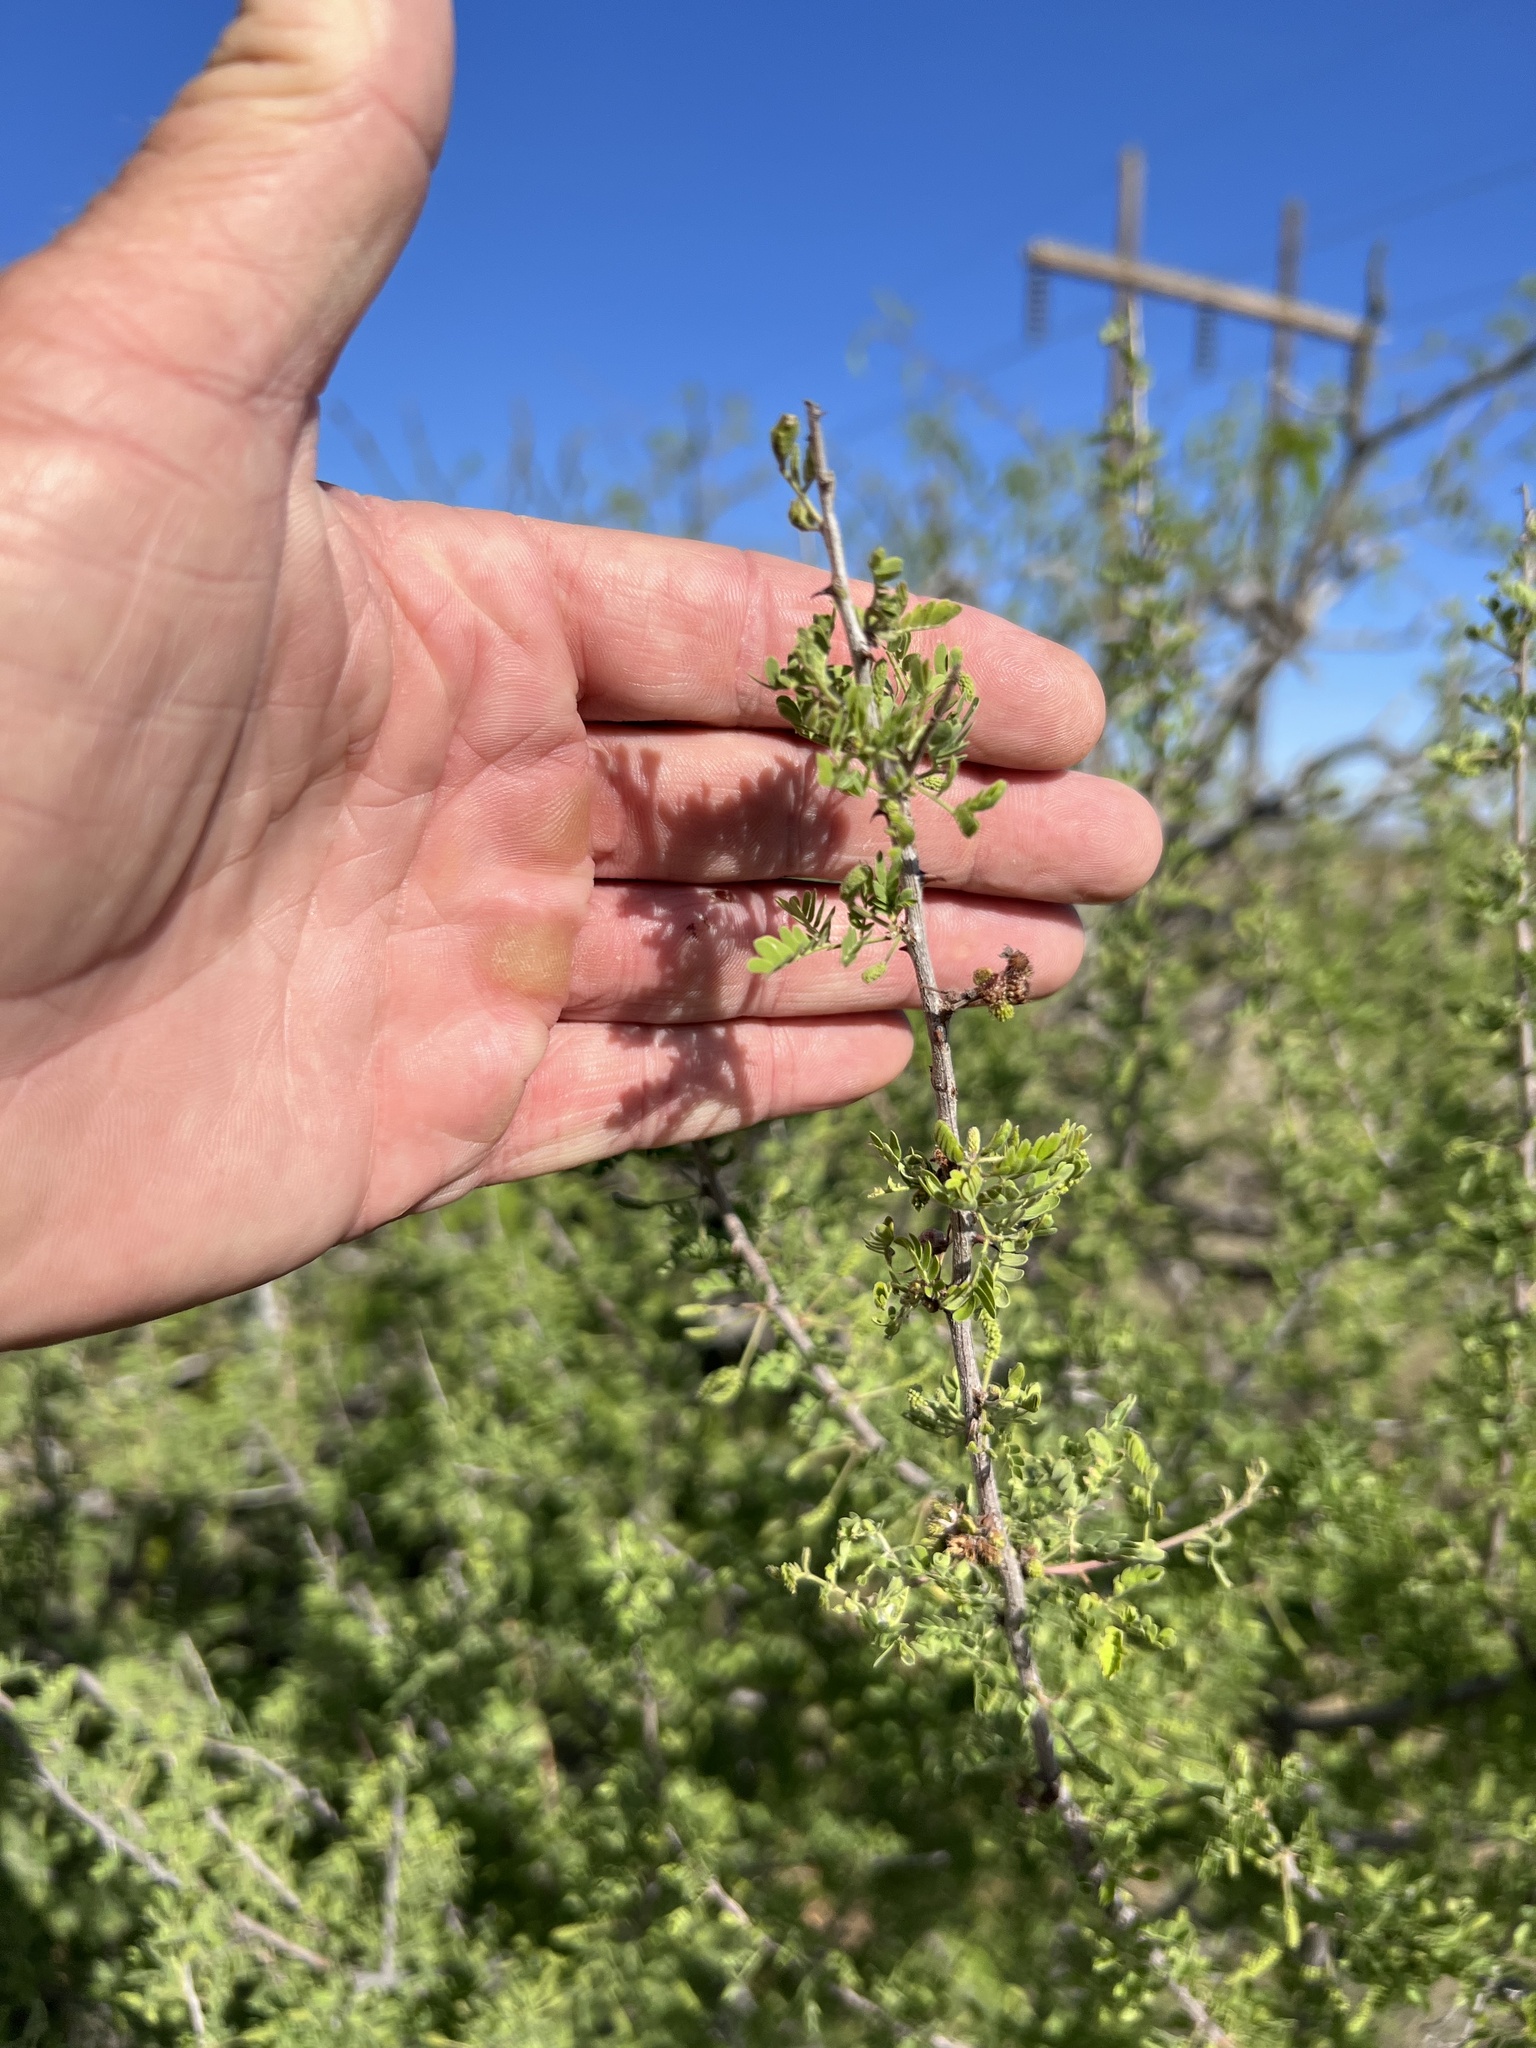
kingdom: Plantae
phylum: Tracheophyta
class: Magnoliopsida
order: Fabales
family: Fabaceae
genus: Senegalia
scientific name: Senegalia greggii
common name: Texas-mimosa
